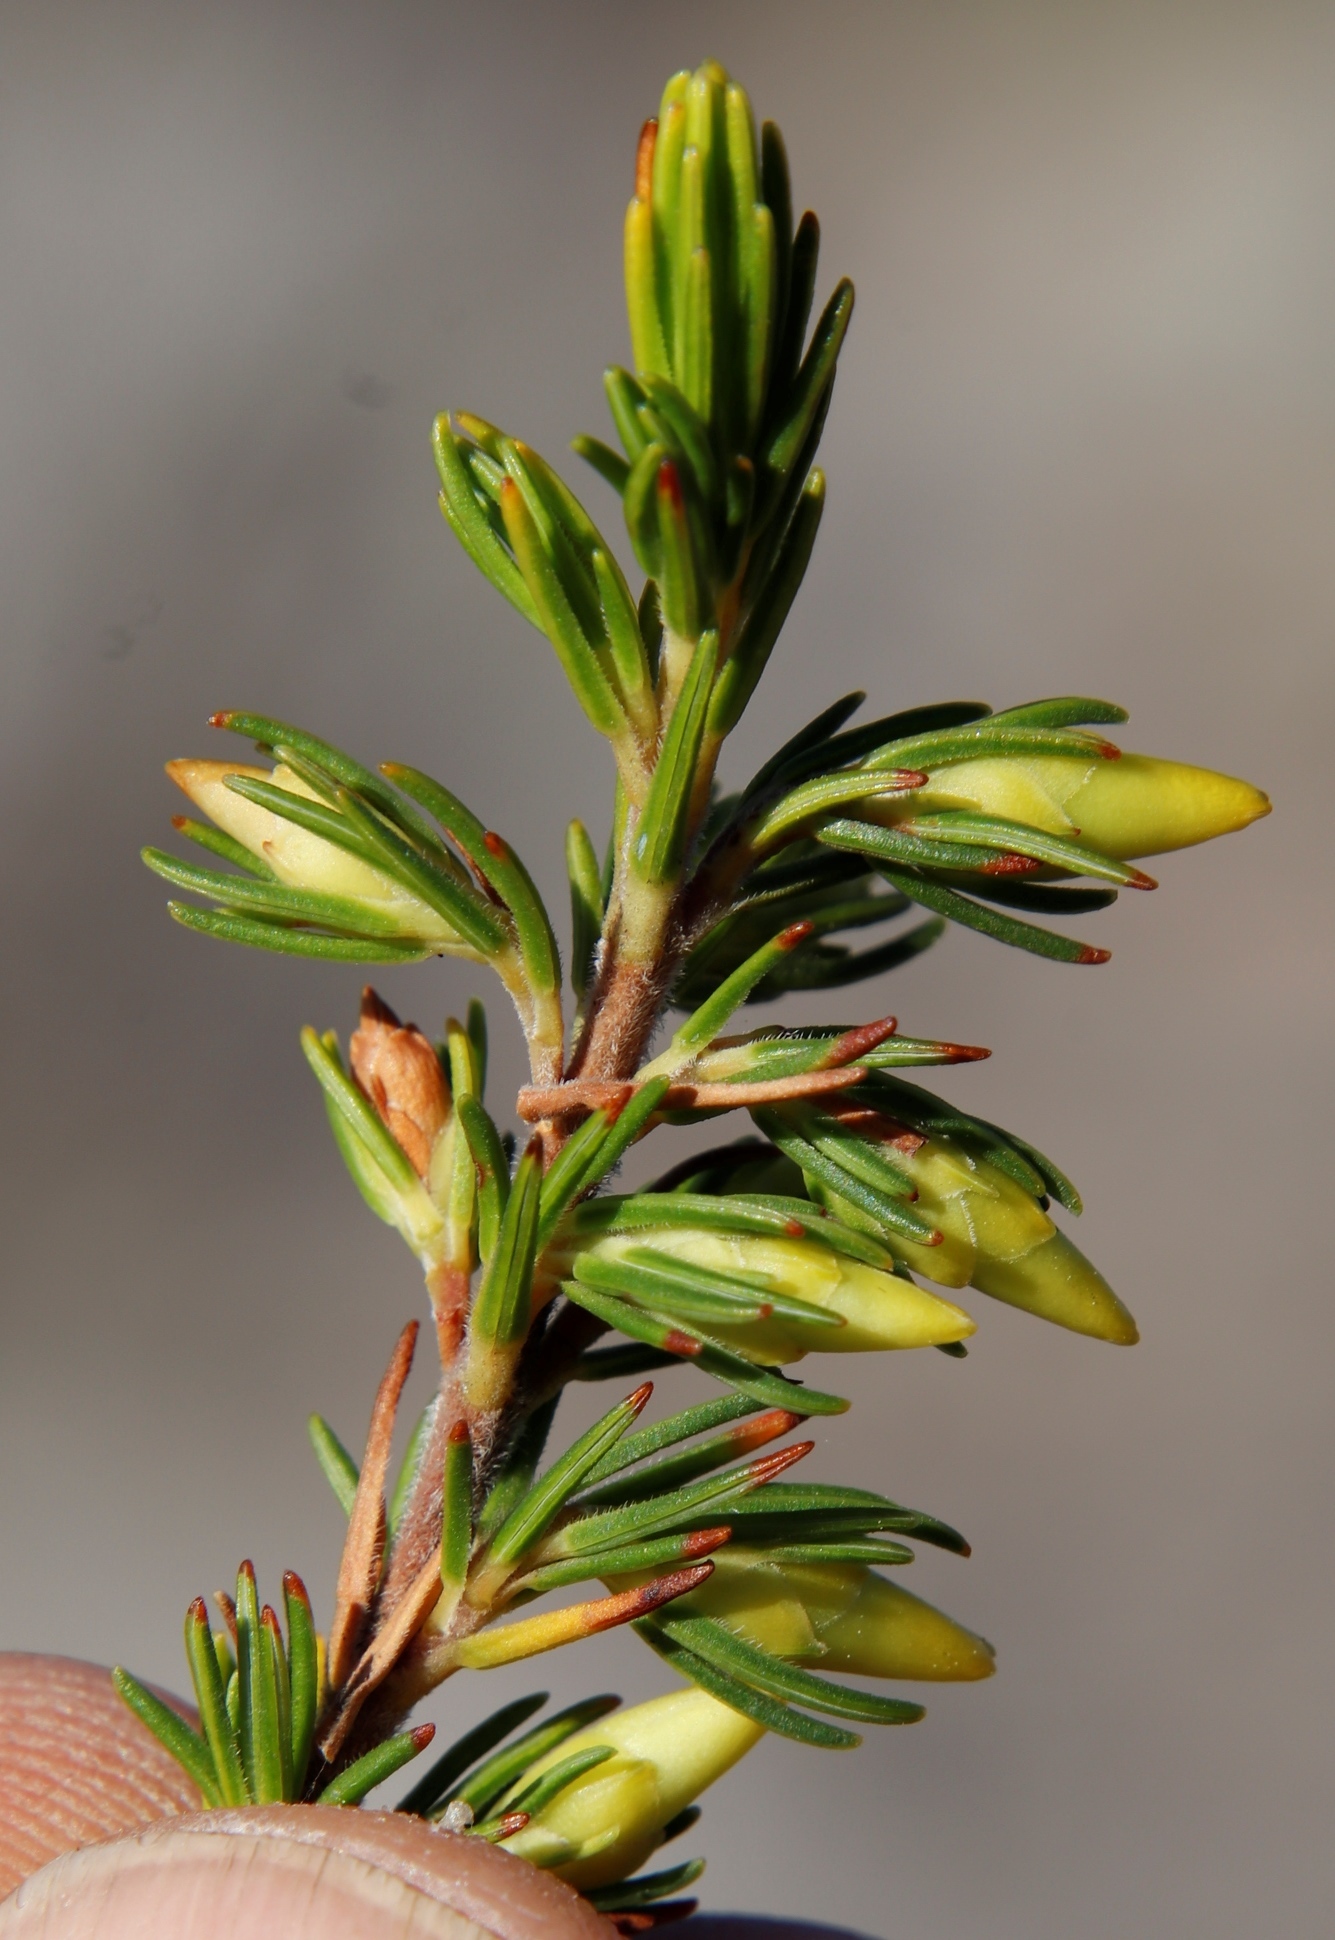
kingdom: Plantae
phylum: Tracheophyta
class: Magnoliopsida
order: Ericales
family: Ericaceae
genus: Erica
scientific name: Erica melastoma
